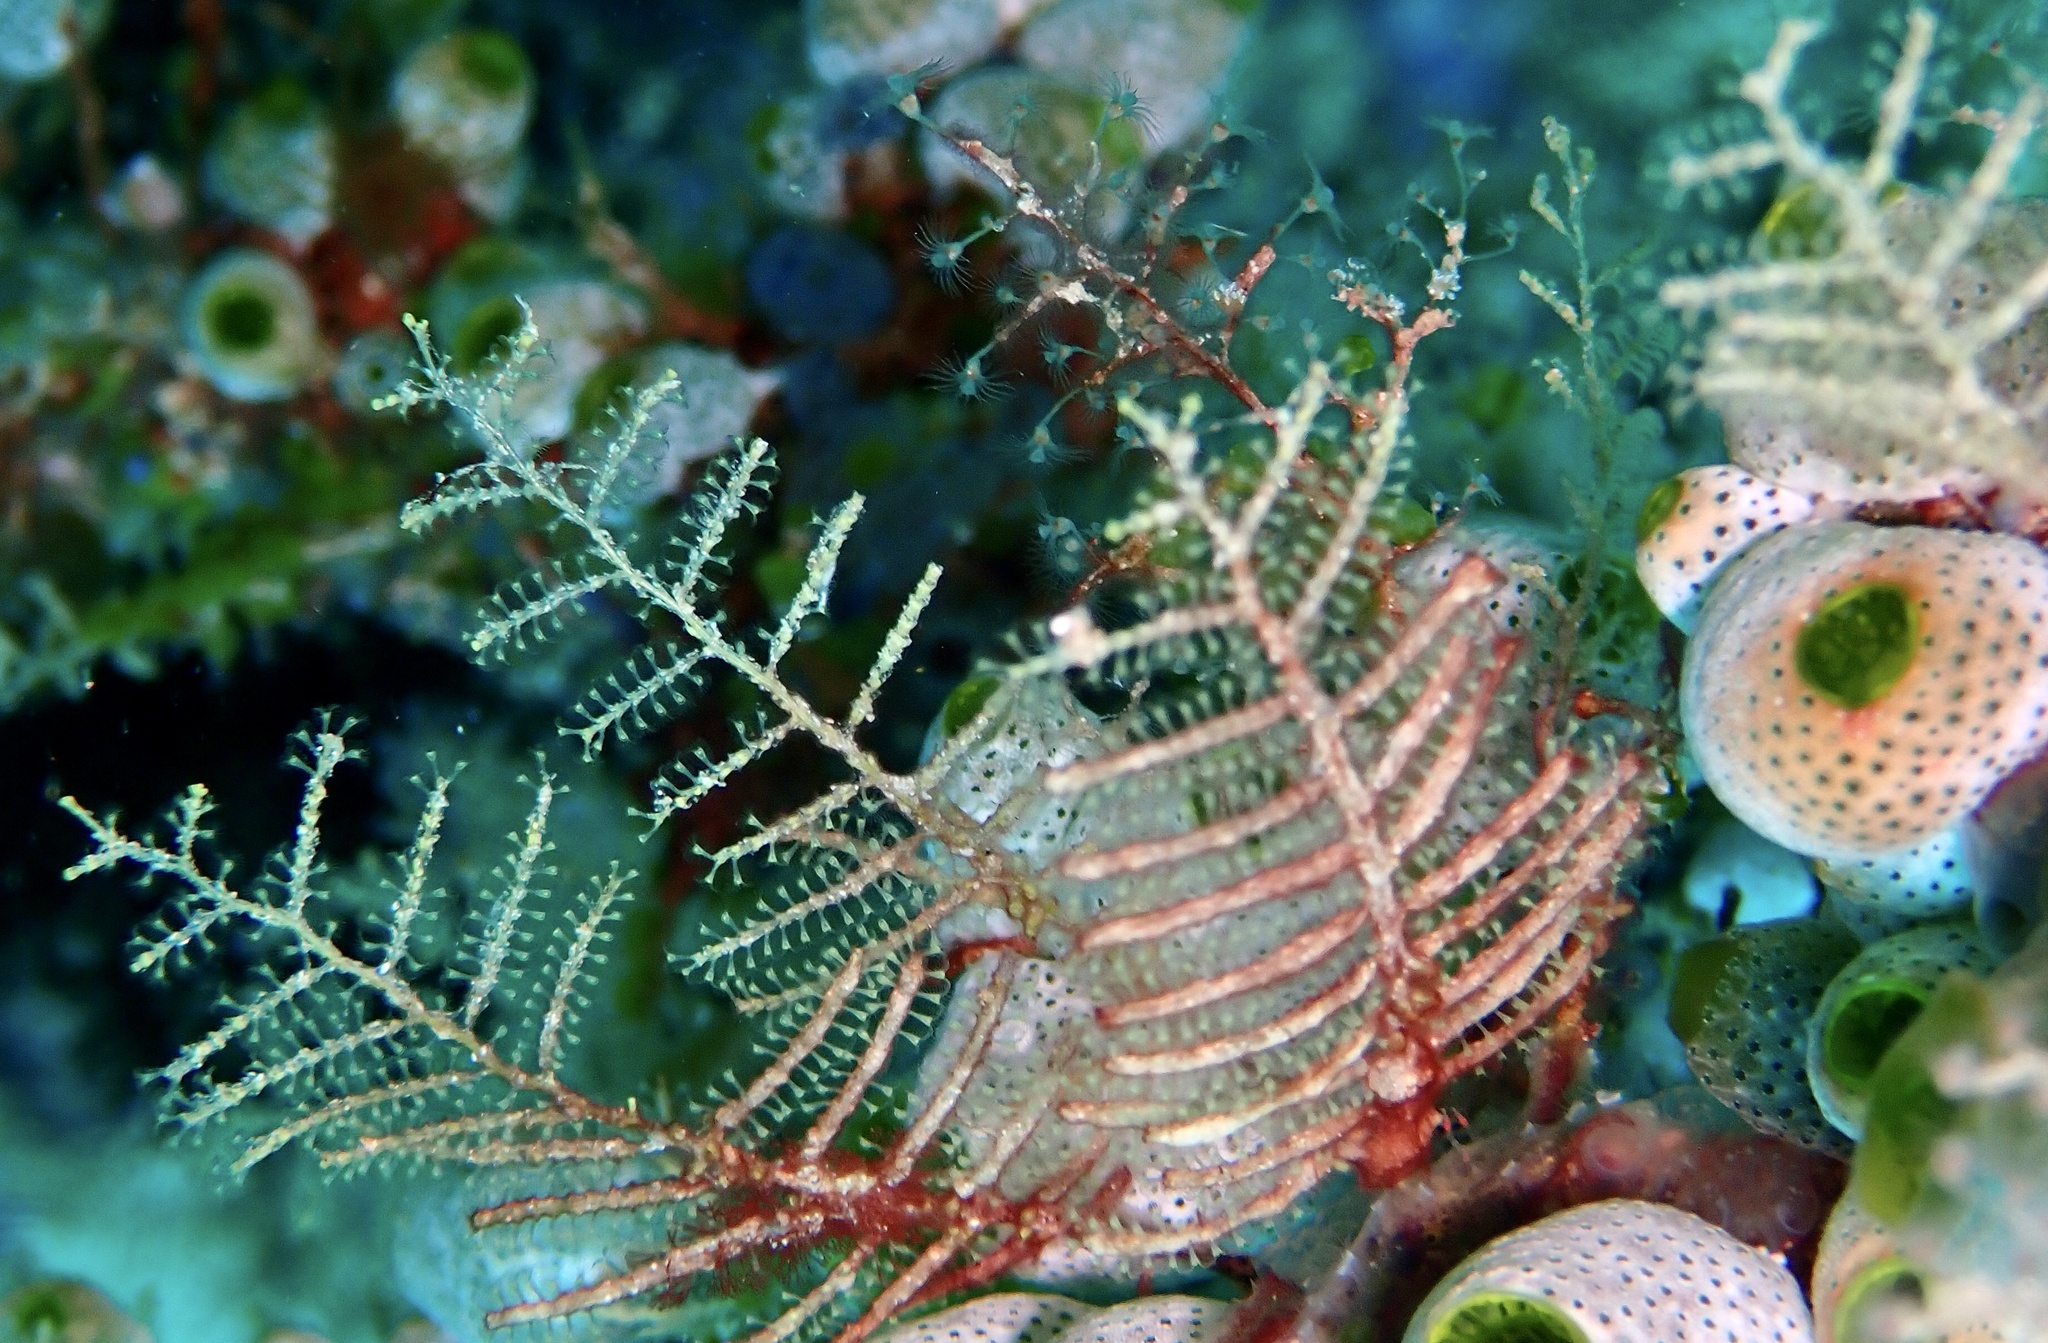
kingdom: Animalia
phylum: Cnidaria
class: Hydrozoa
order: Leptothecata
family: Sertulariidae
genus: Dynamena
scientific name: Dynamena moluccana
